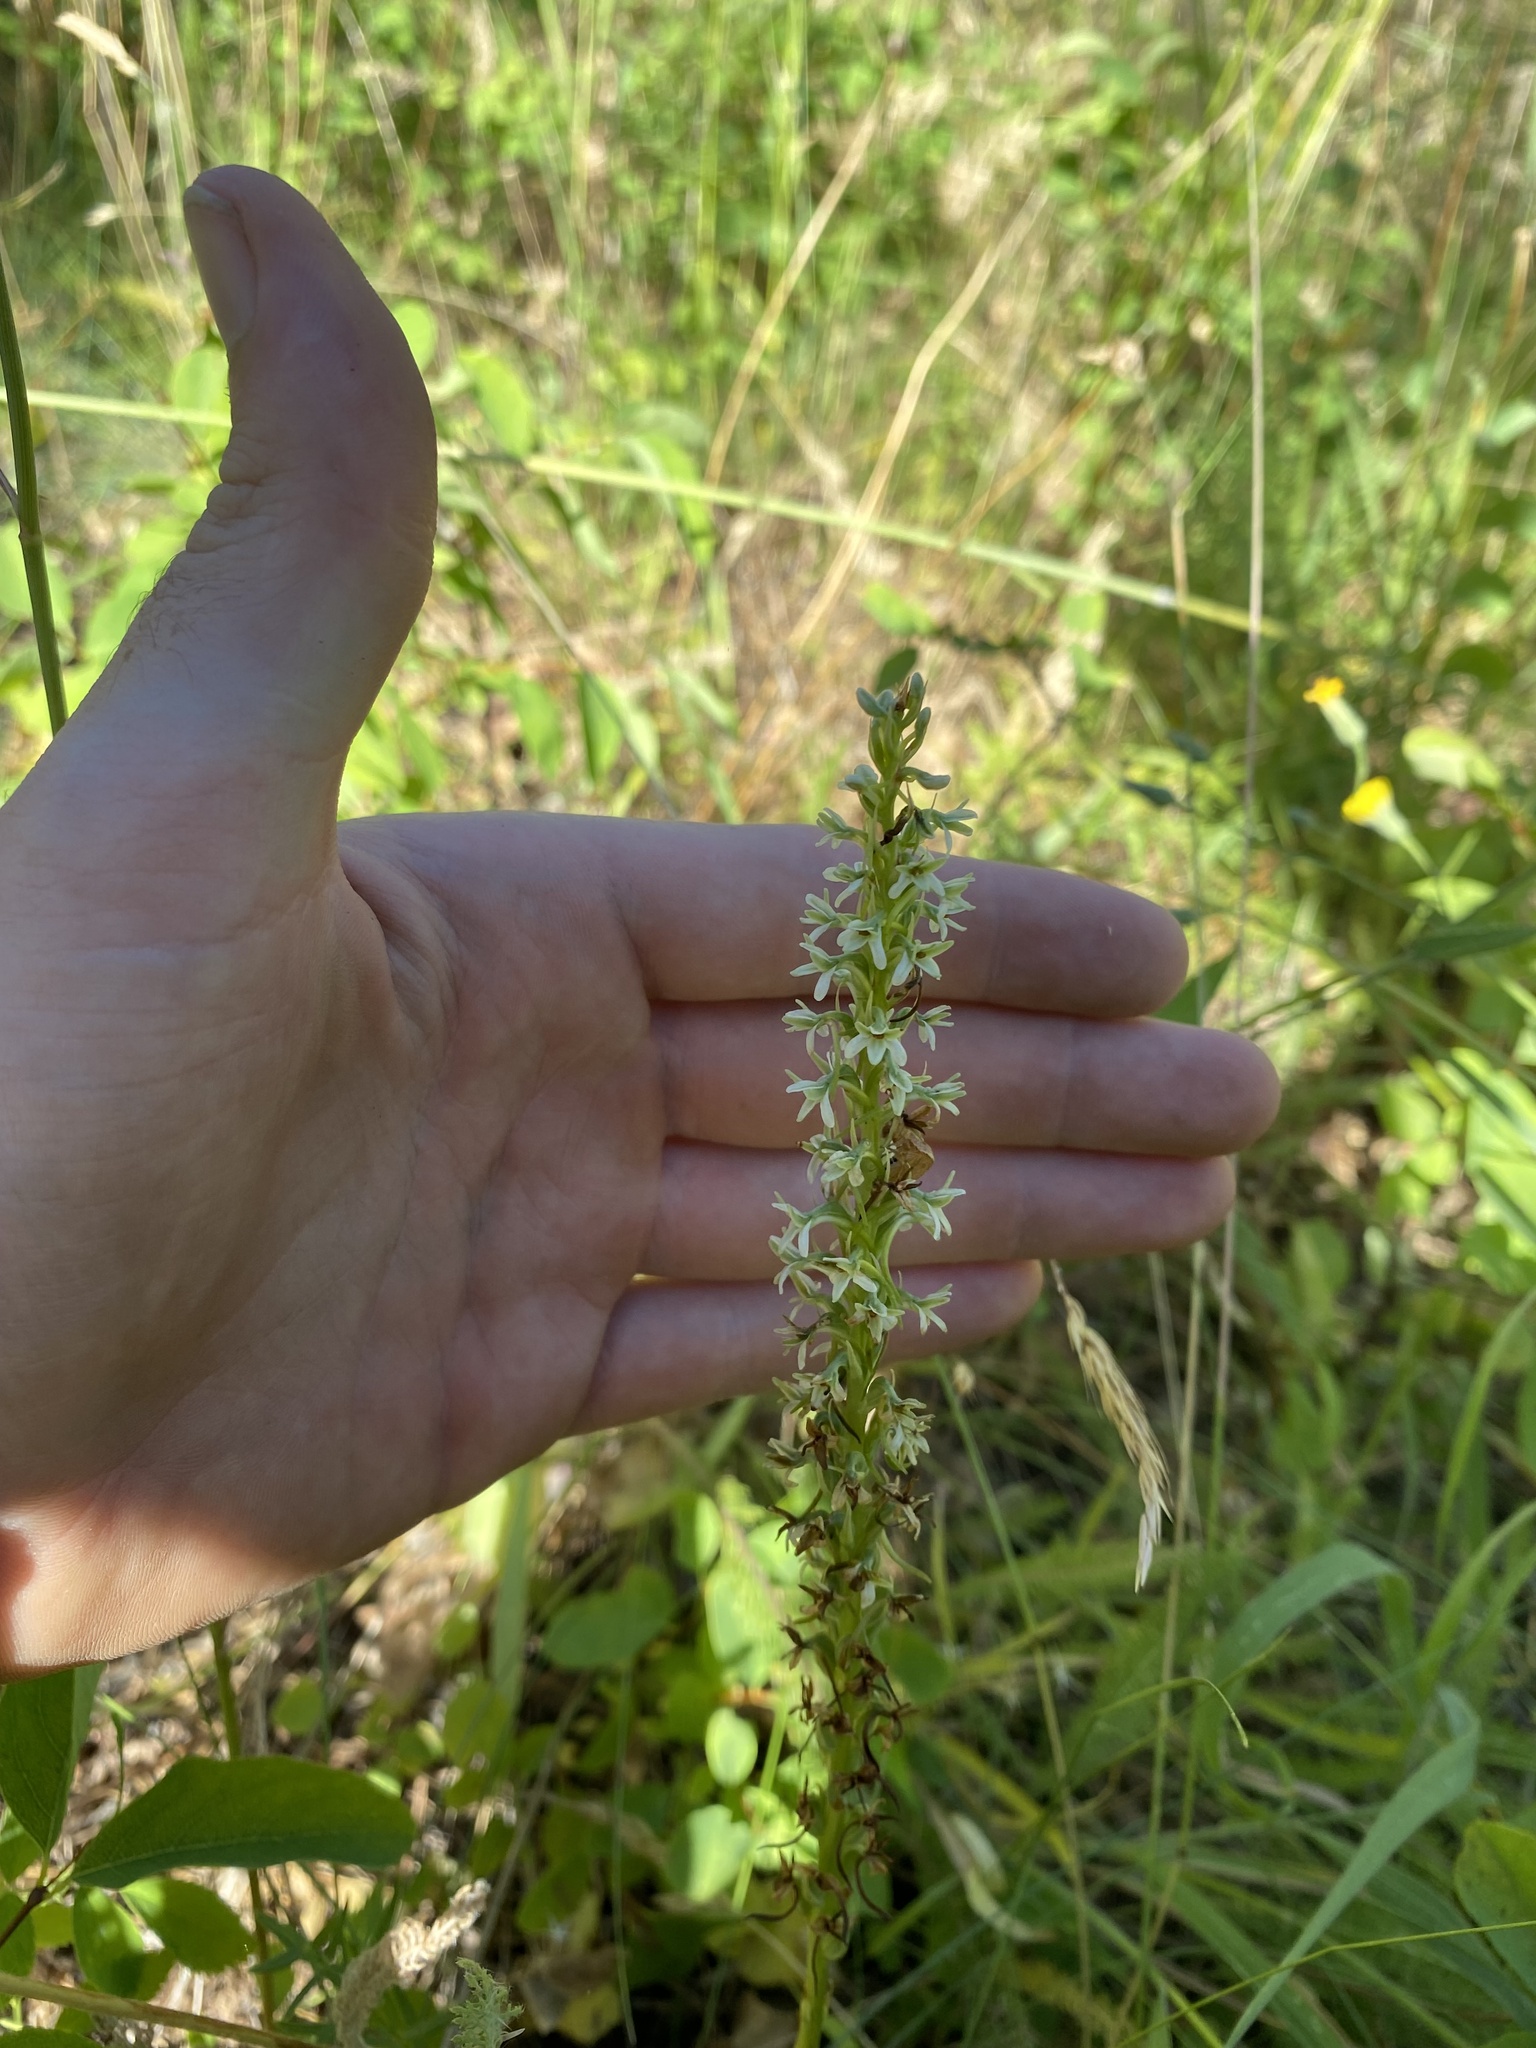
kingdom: Plantae
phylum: Tracheophyta
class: Liliopsida
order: Asparagales
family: Orchidaceae
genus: Platanthera
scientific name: Platanthera elegans
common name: Coast piperia
